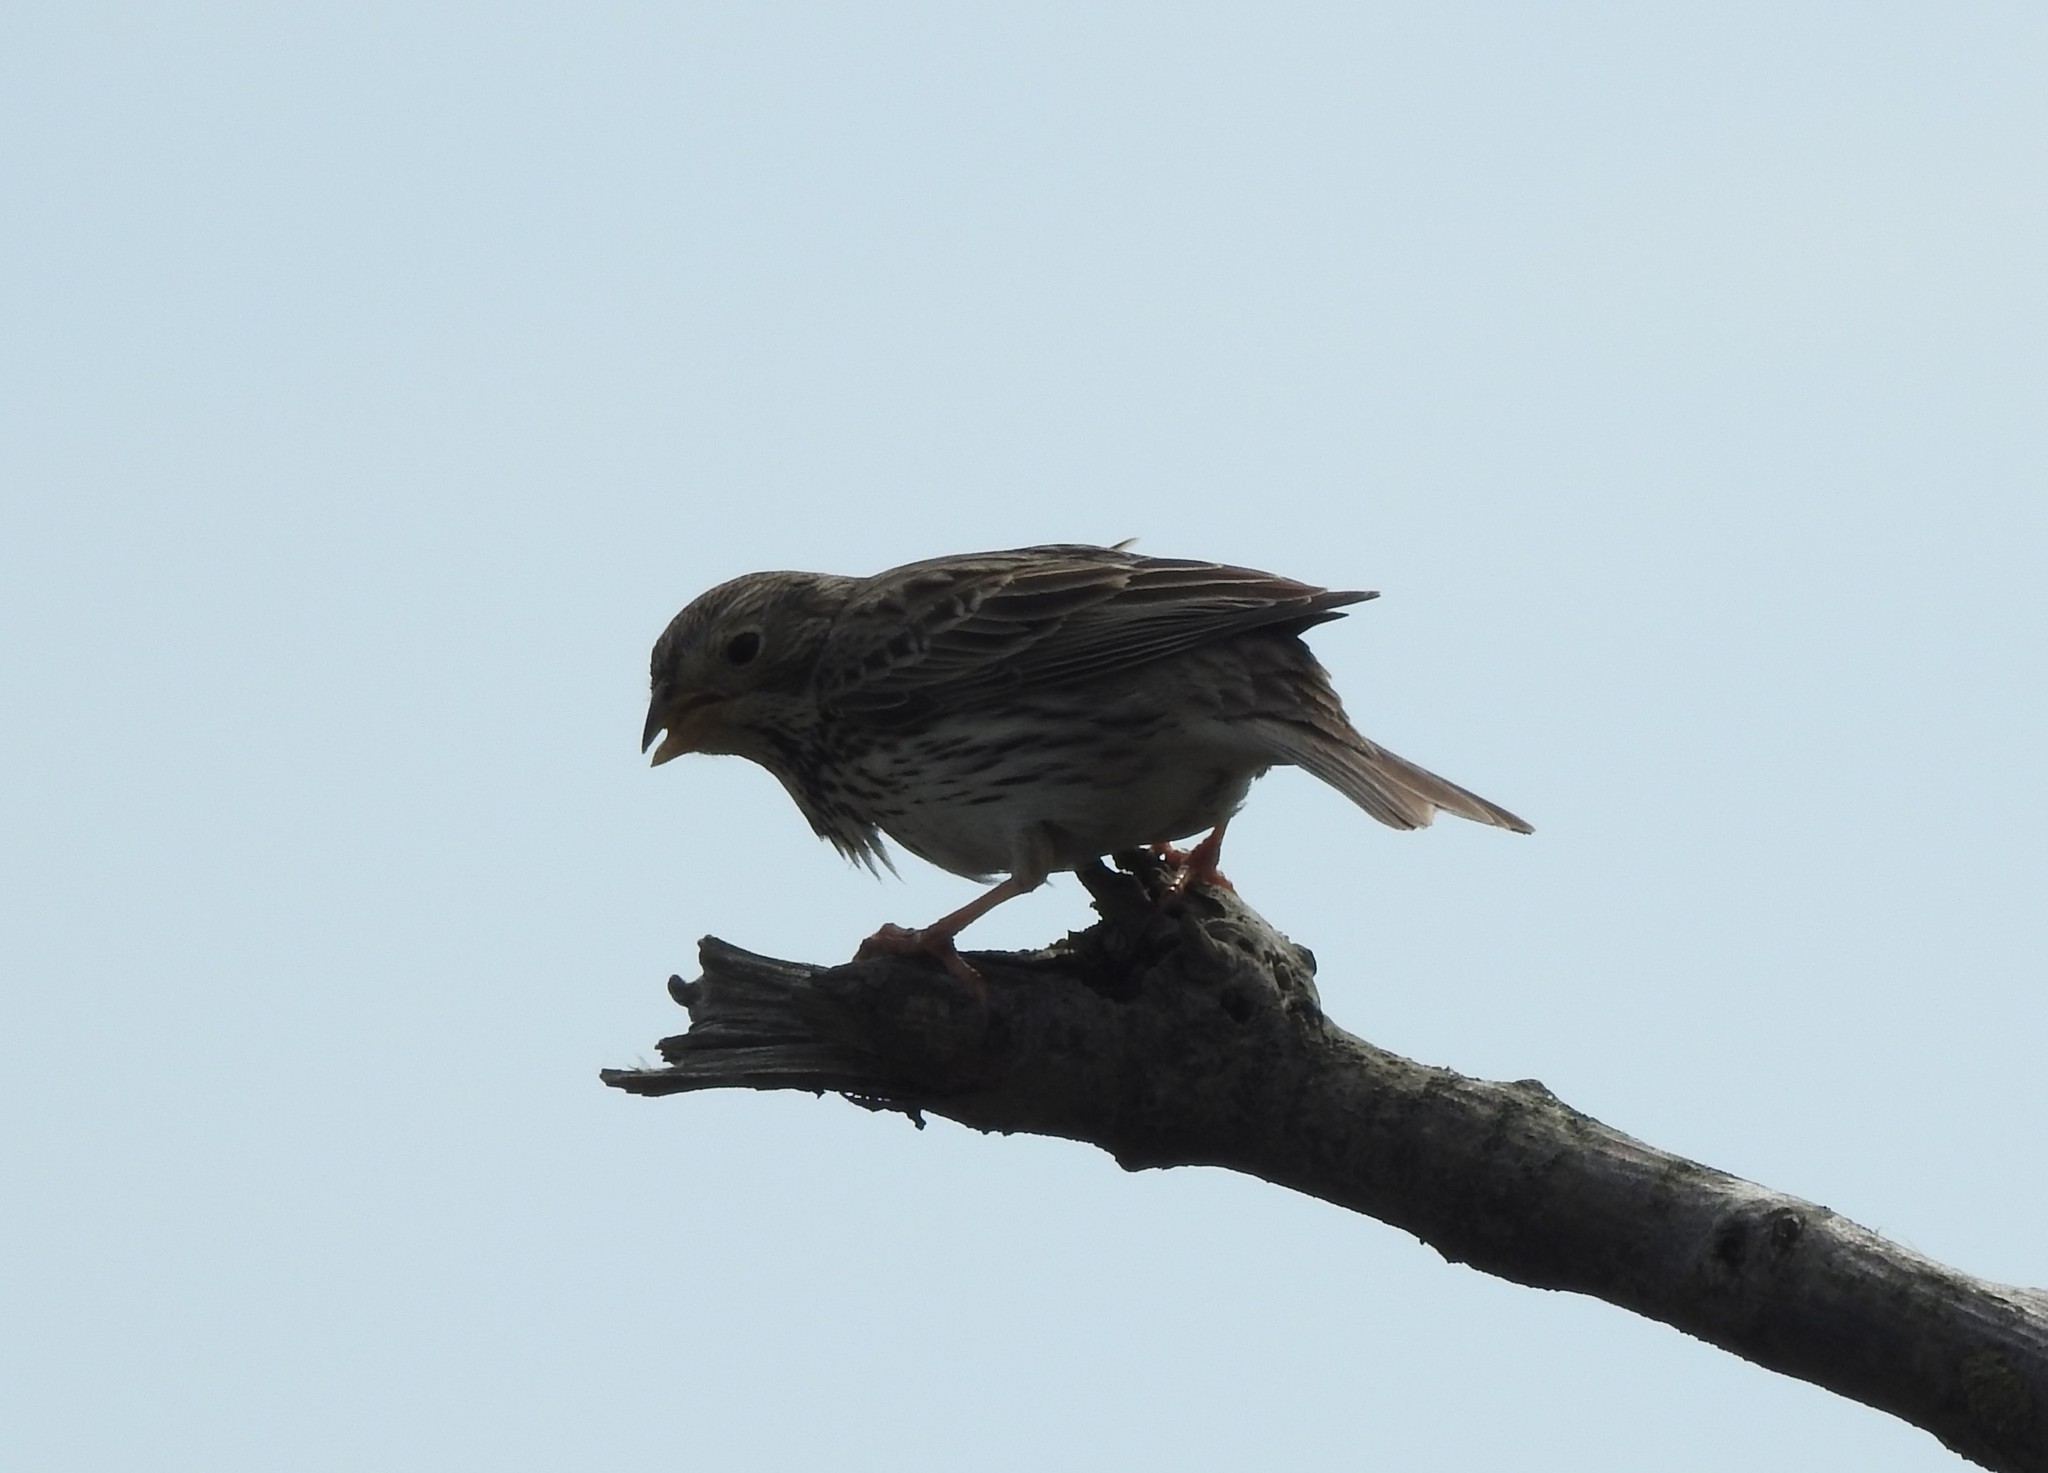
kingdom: Animalia
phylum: Chordata
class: Aves
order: Passeriformes
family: Emberizidae
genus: Emberiza
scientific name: Emberiza calandra
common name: Corn bunting
